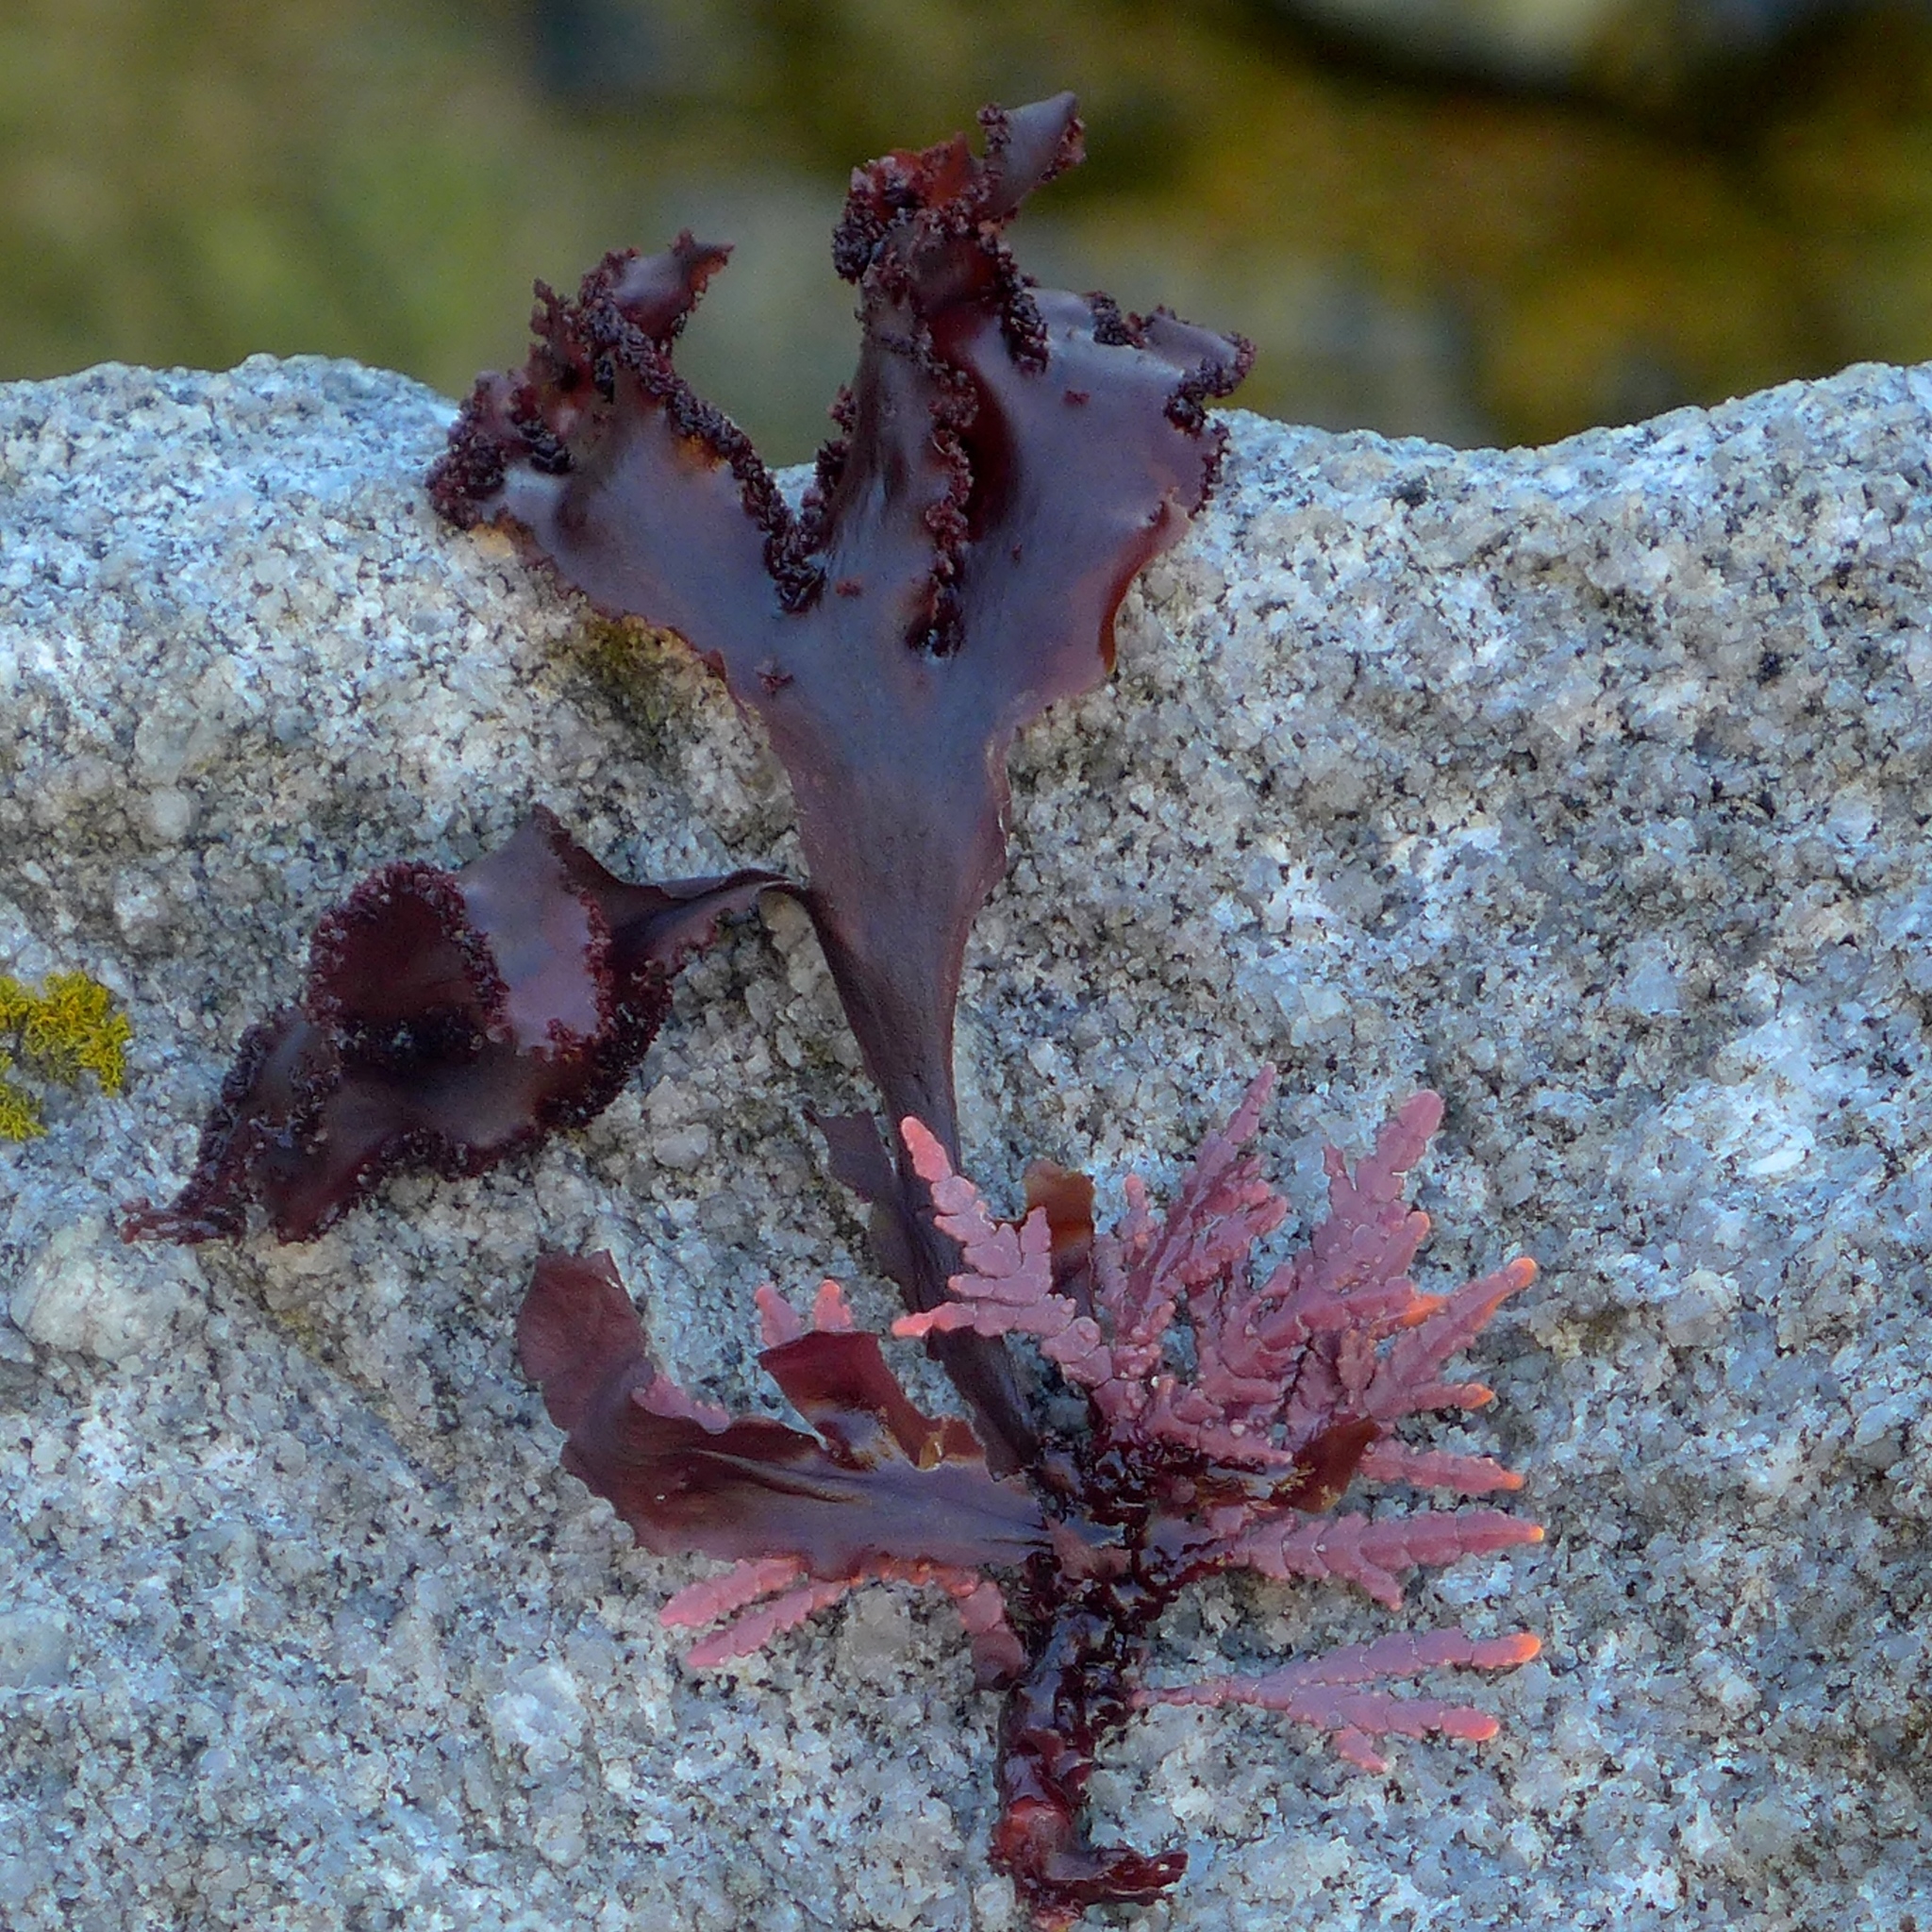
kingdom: Plantae
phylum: Rhodophyta
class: Florideophyceae
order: Ceramiales
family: Delesseriaceae
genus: Cryptopleura
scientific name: Cryptopleura ruprechtiana
